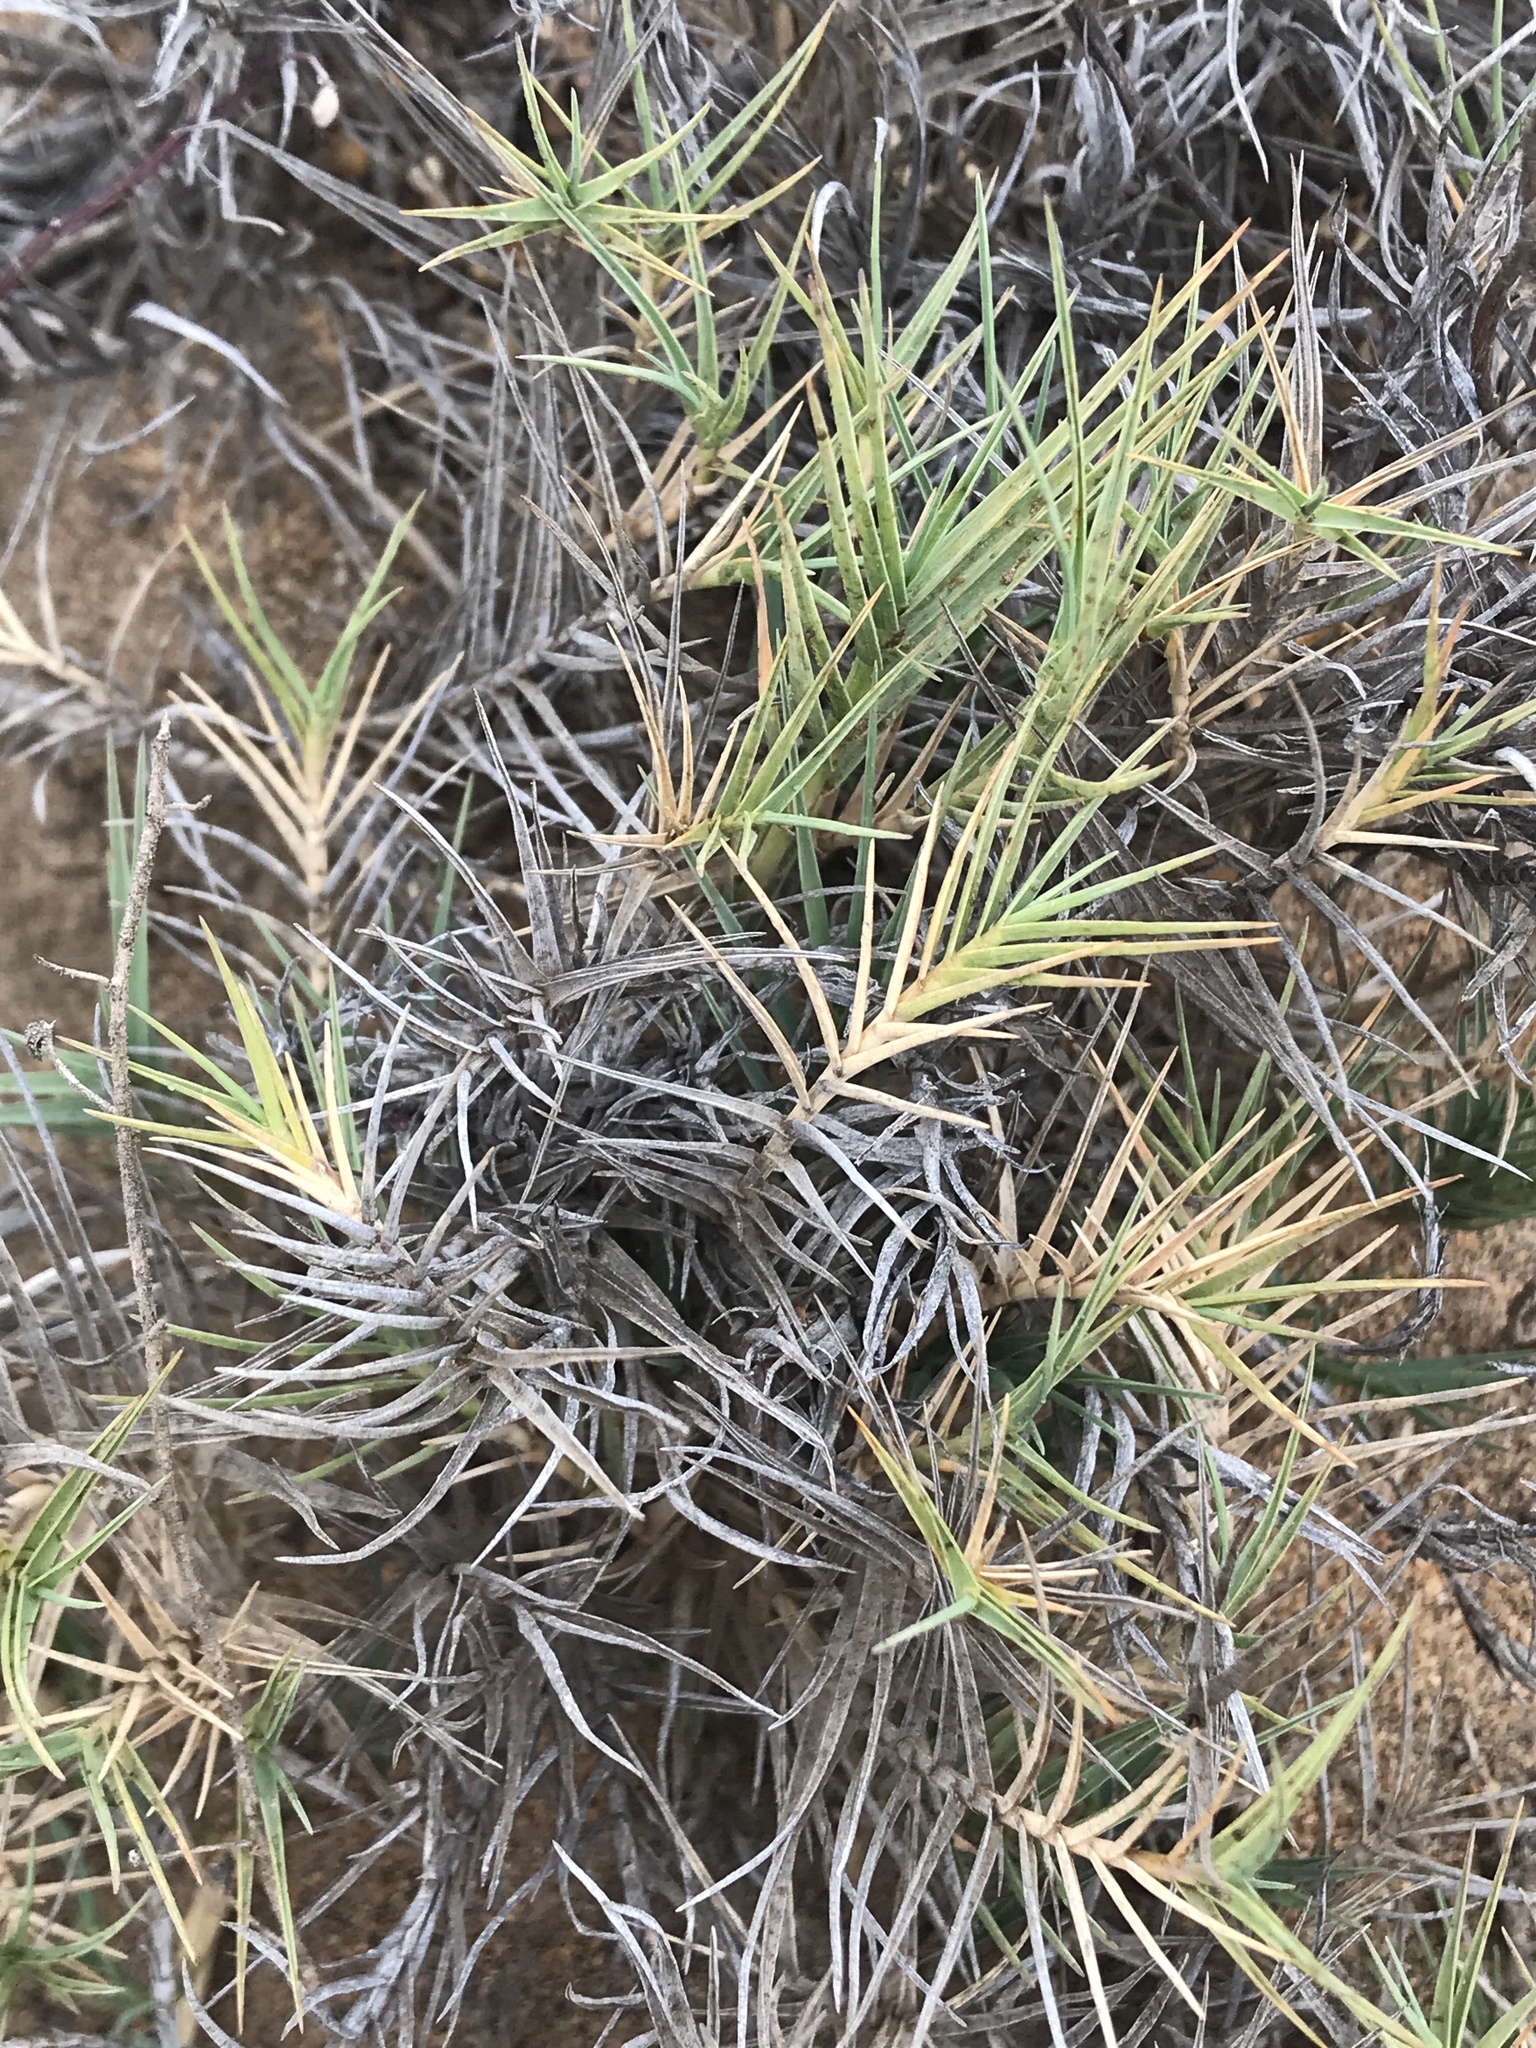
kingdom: Plantae
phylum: Tracheophyta
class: Liliopsida
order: Poales
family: Poaceae
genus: Distichlis
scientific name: Distichlis spicata
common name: Saltgrass
